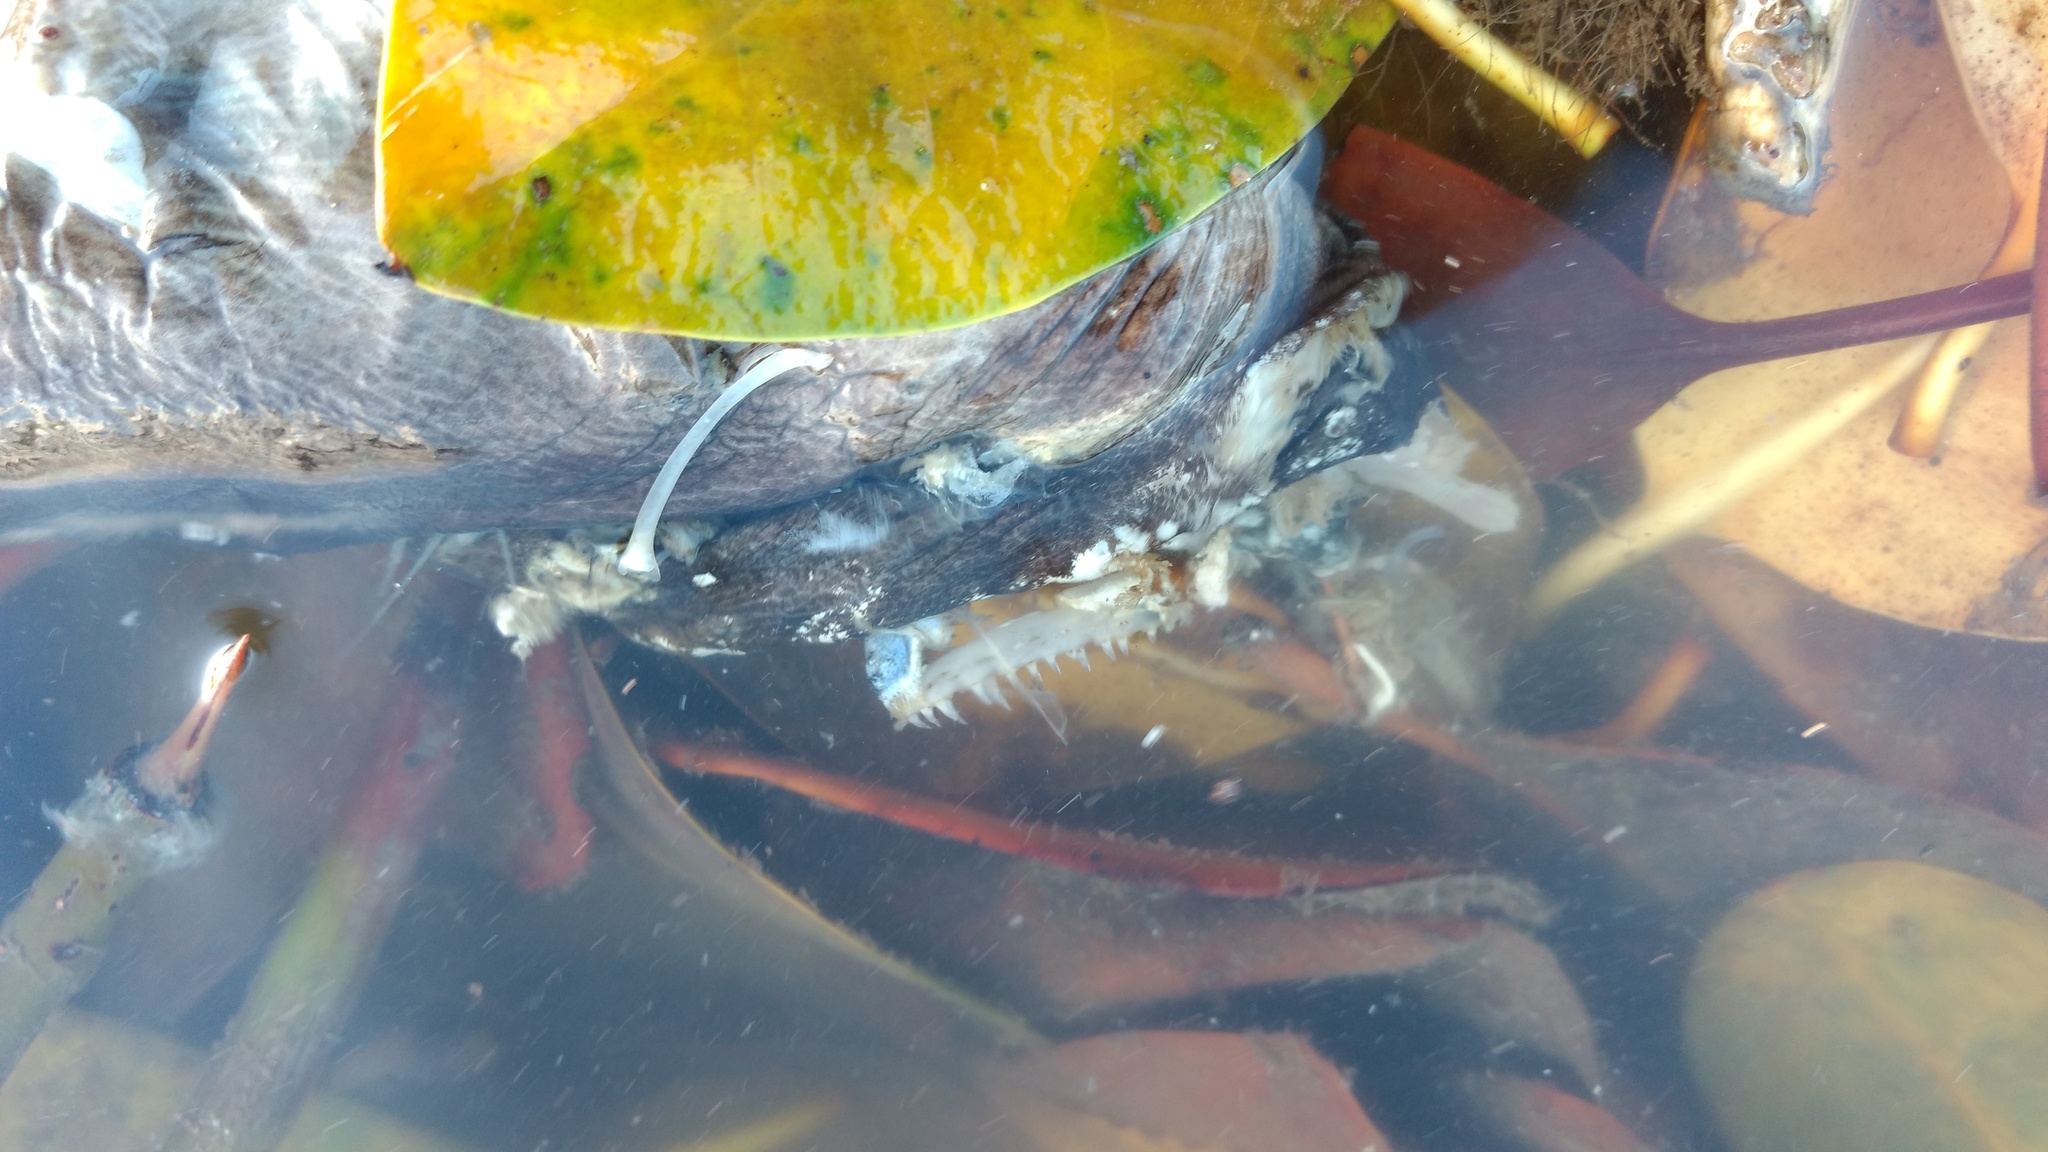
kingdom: Animalia
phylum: Chordata
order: Anguilliformes
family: Muraenidae
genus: Strophidon
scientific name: Strophidon sathete
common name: Giant slender moray
